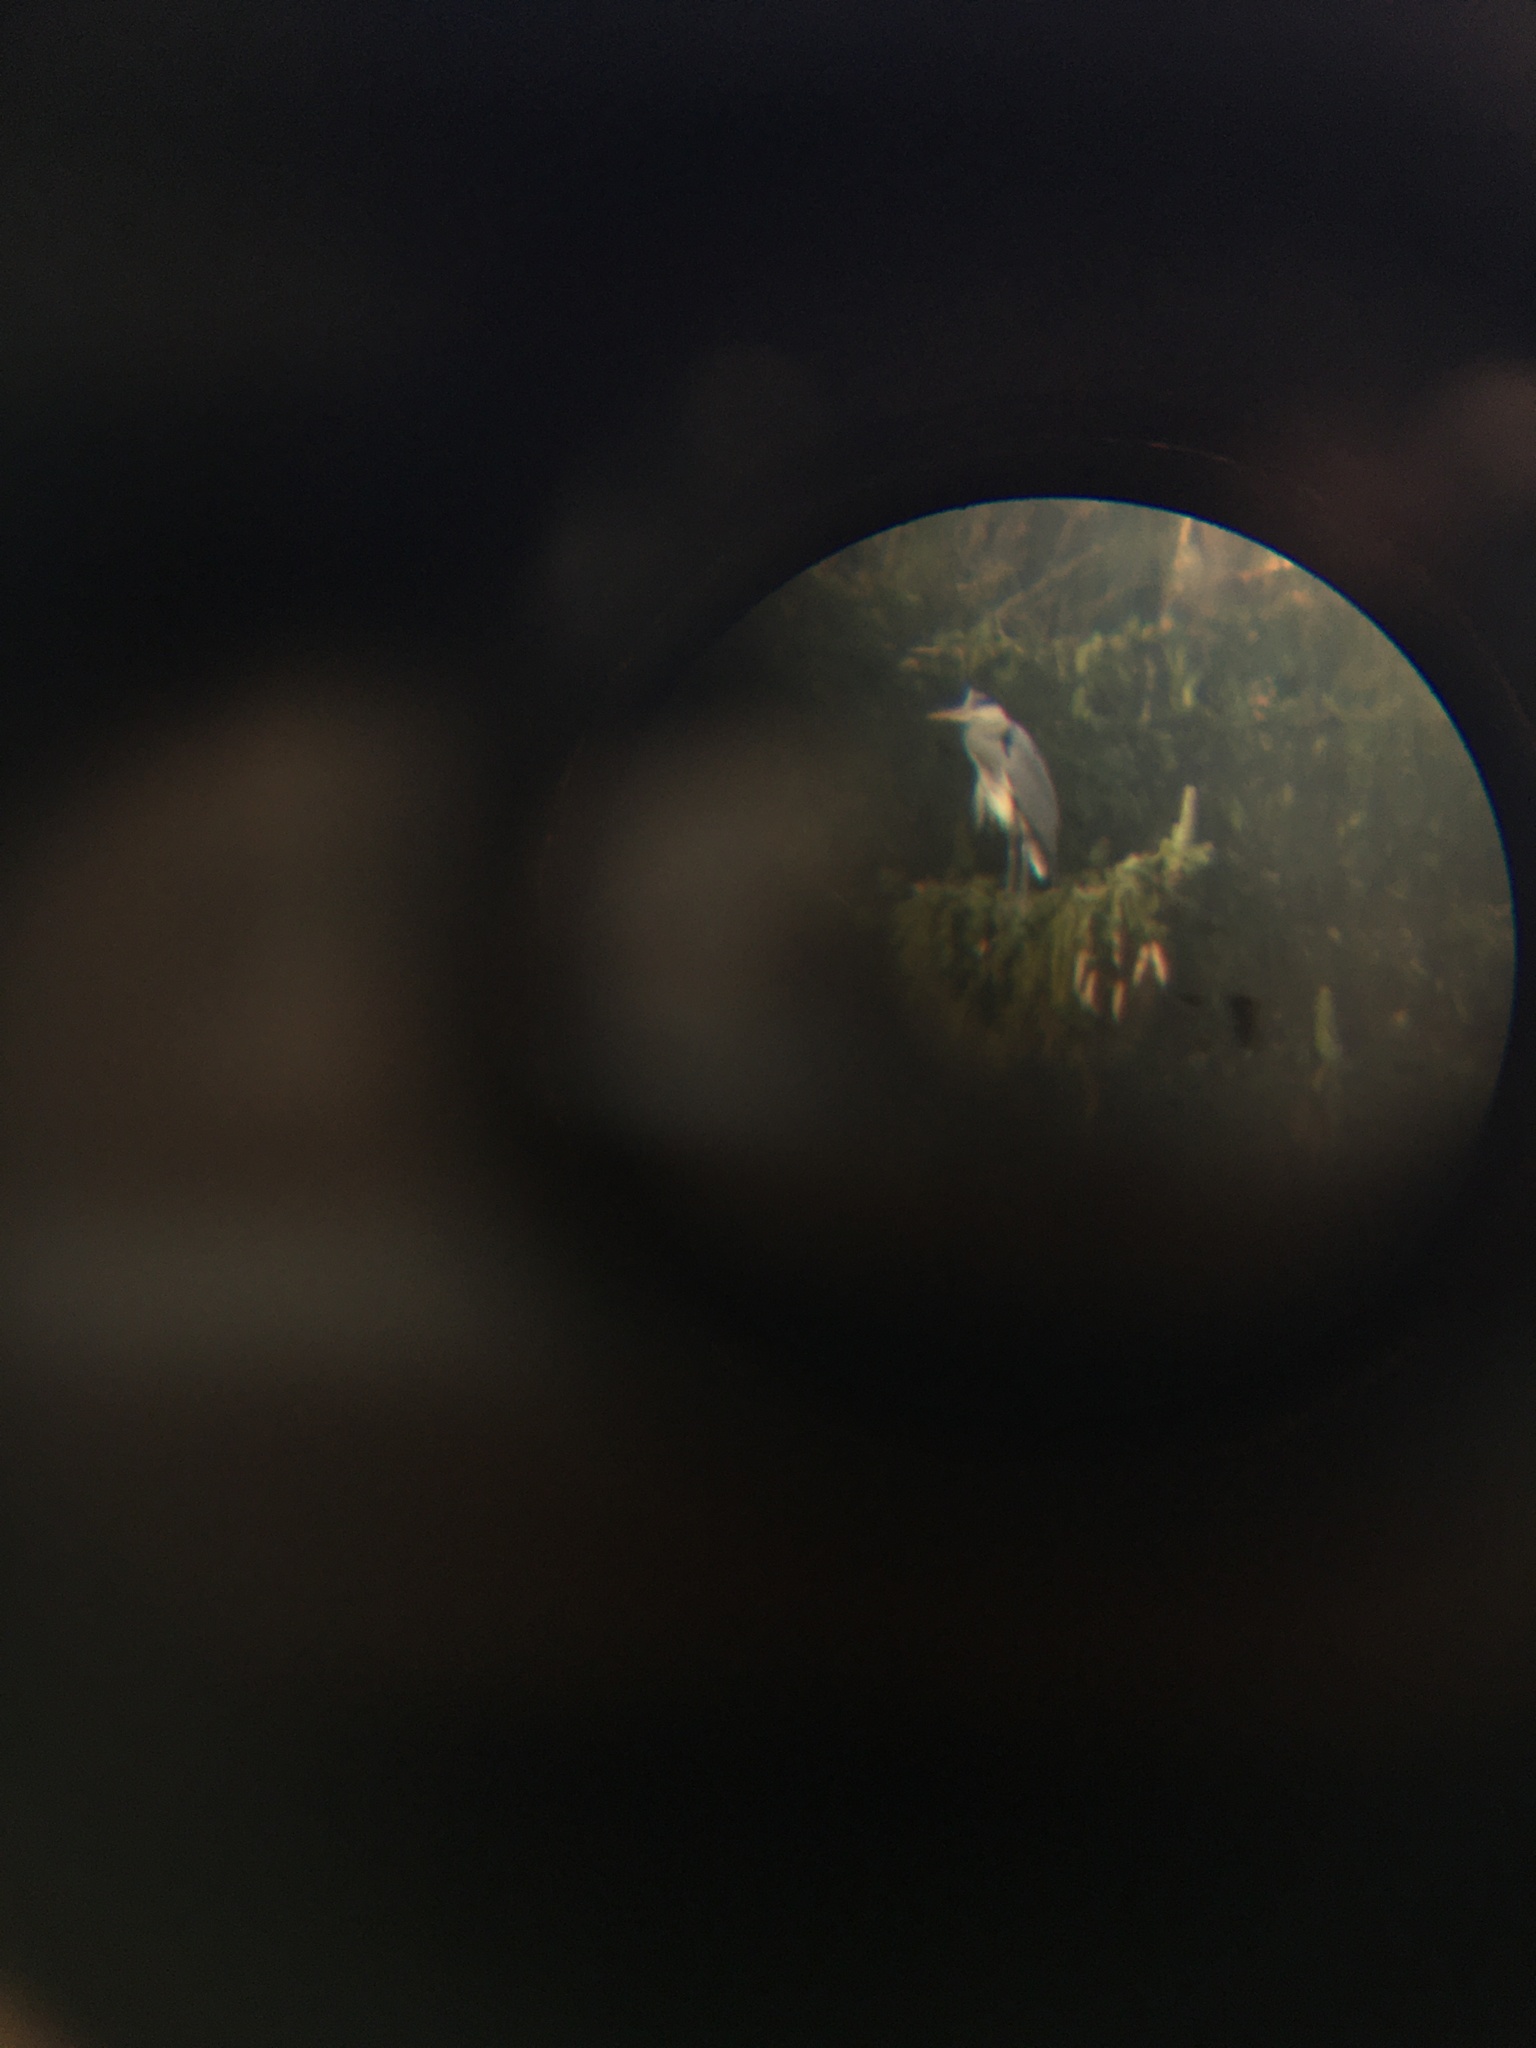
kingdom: Animalia
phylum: Chordata
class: Aves
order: Pelecaniformes
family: Ardeidae
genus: Ardea
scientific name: Ardea cinerea
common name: Grey heron
